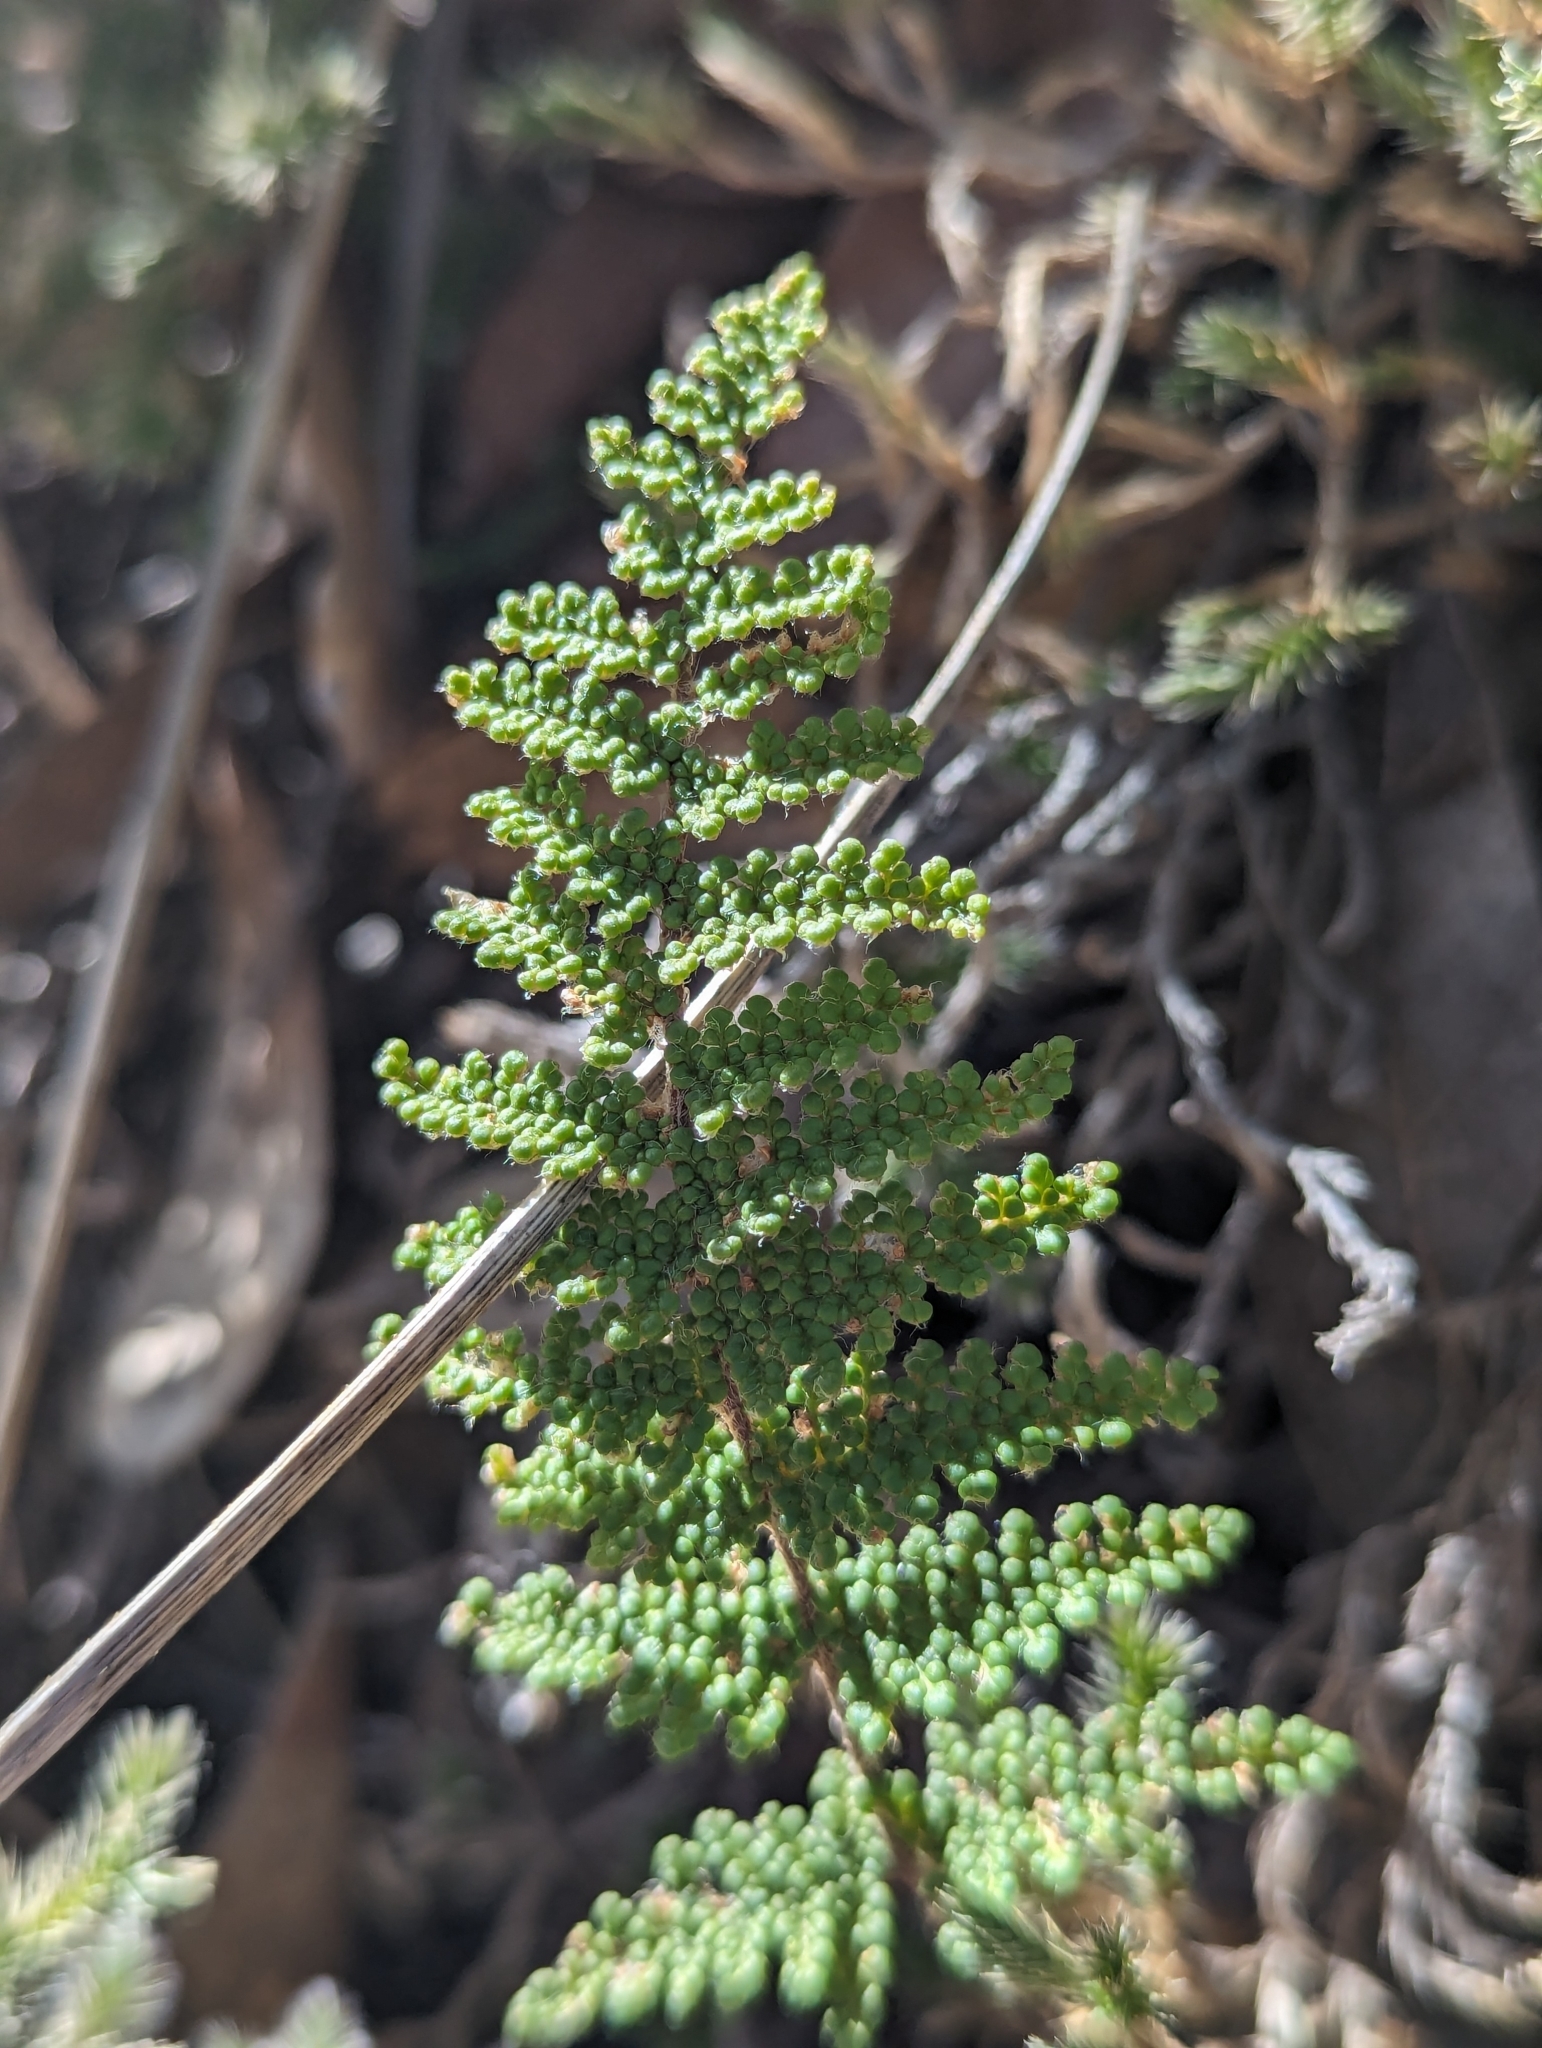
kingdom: Plantae
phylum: Tracheophyta
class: Polypodiopsida
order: Polypodiales
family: Pteridaceae
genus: Myriopteris
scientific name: Myriopteris fendleri
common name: Fendler's lip fern
